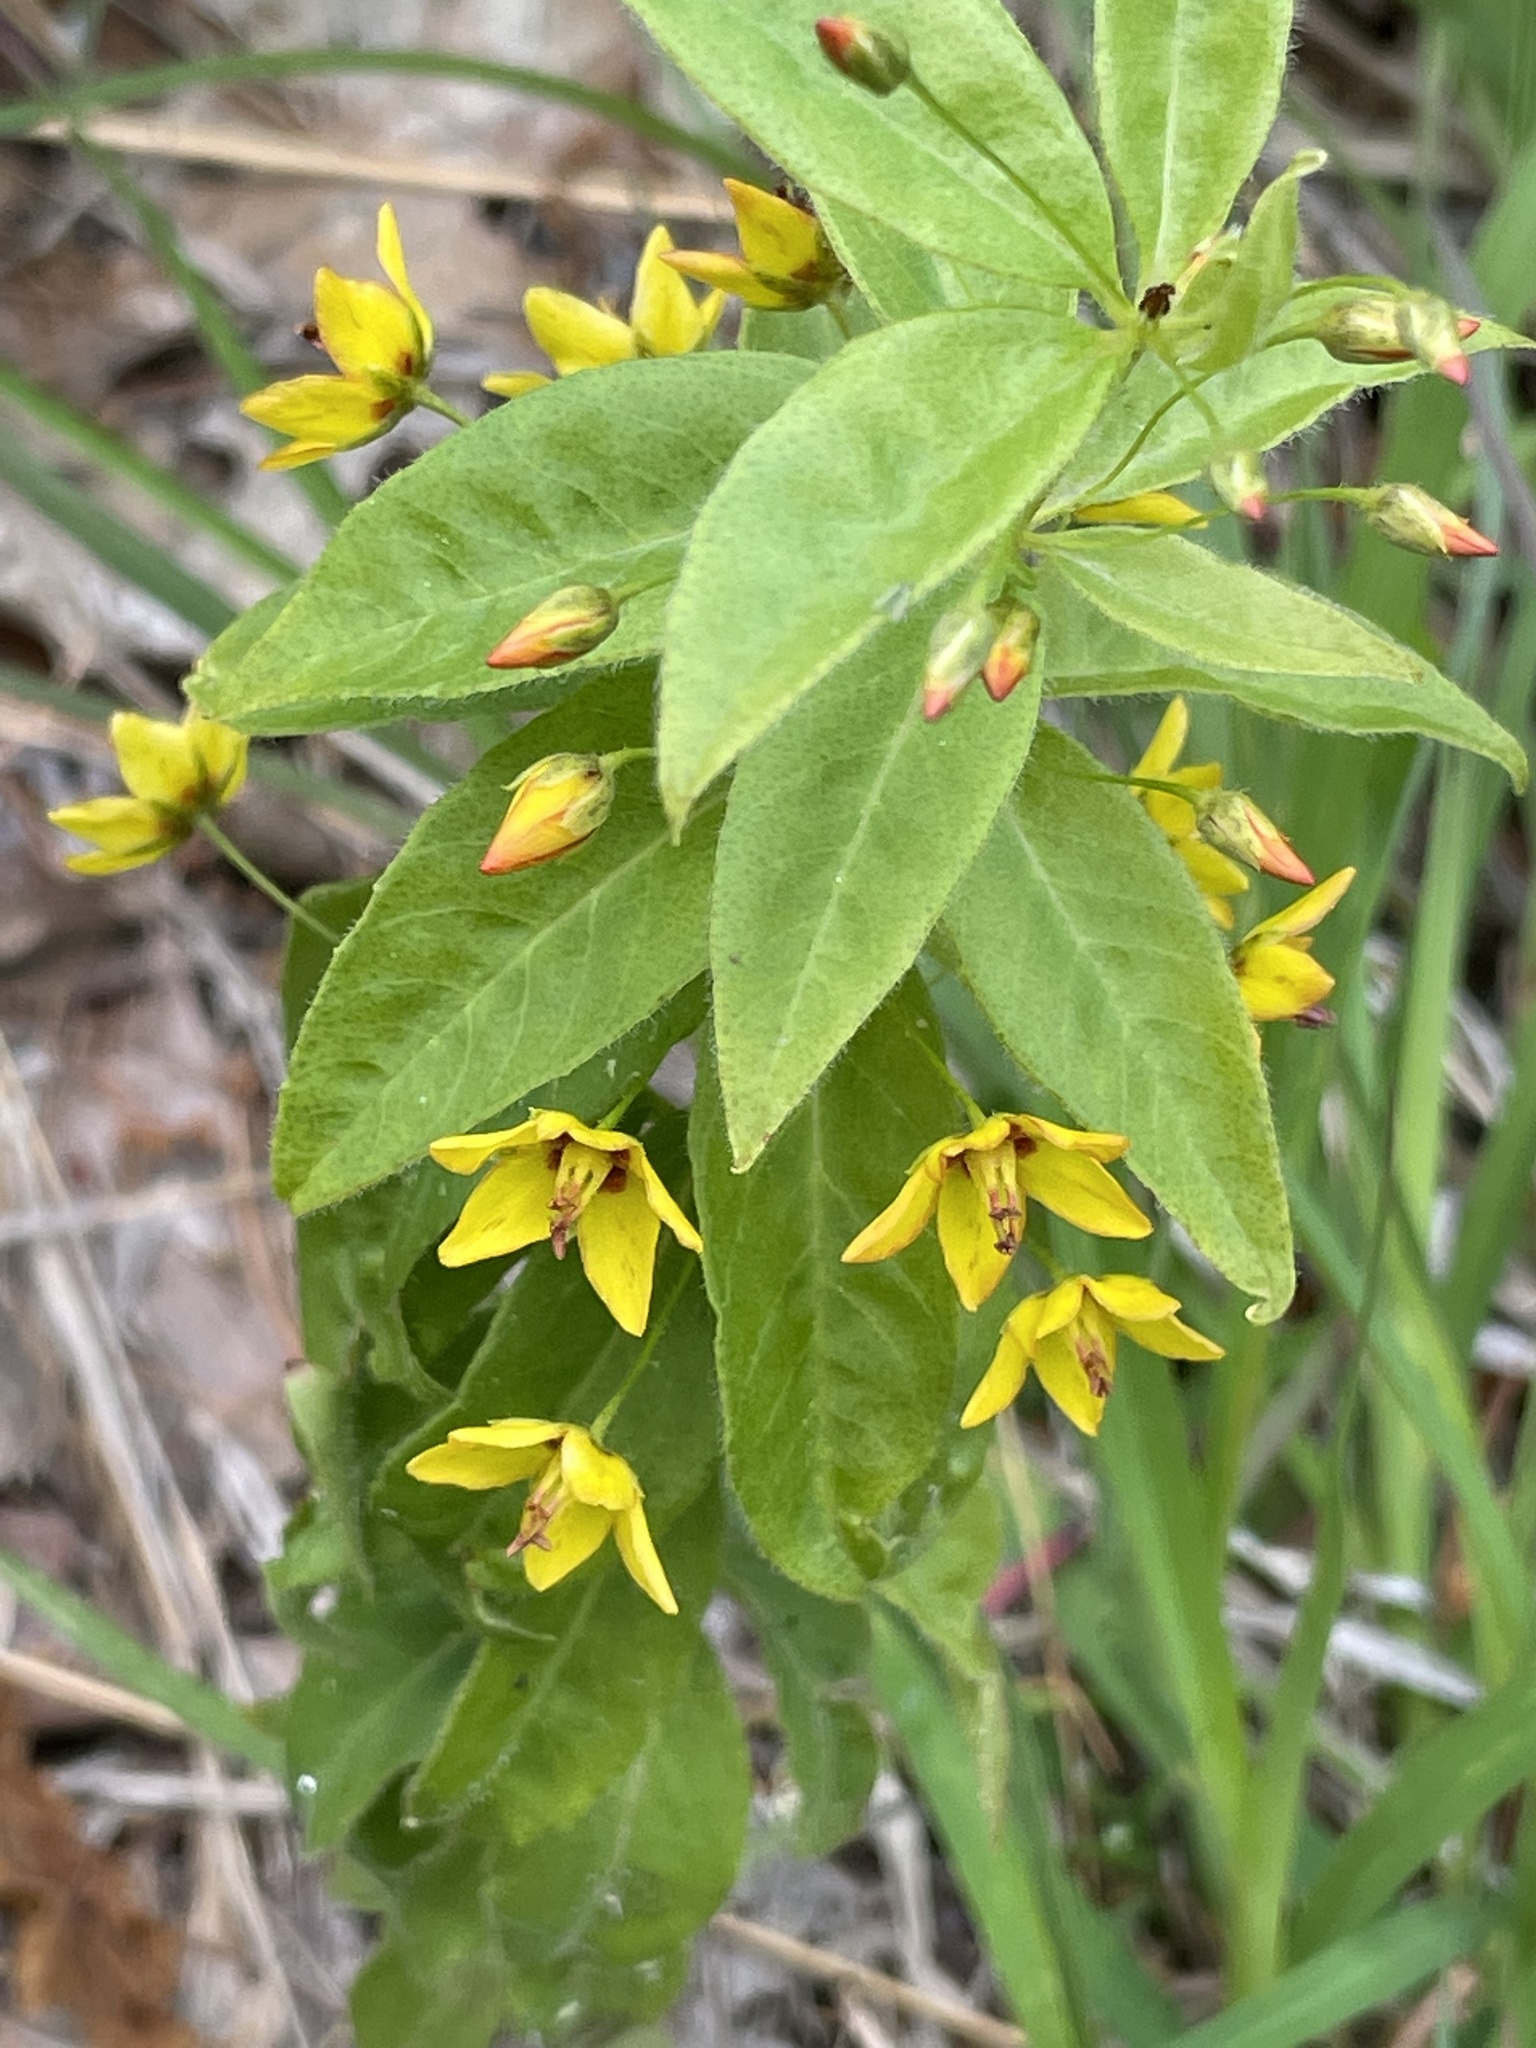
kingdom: Plantae
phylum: Tracheophyta
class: Magnoliopsida
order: Ericales
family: Primulaceae
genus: Lysimachia
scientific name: Lysimachia quadrifolia
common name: Whorled loosestrife
